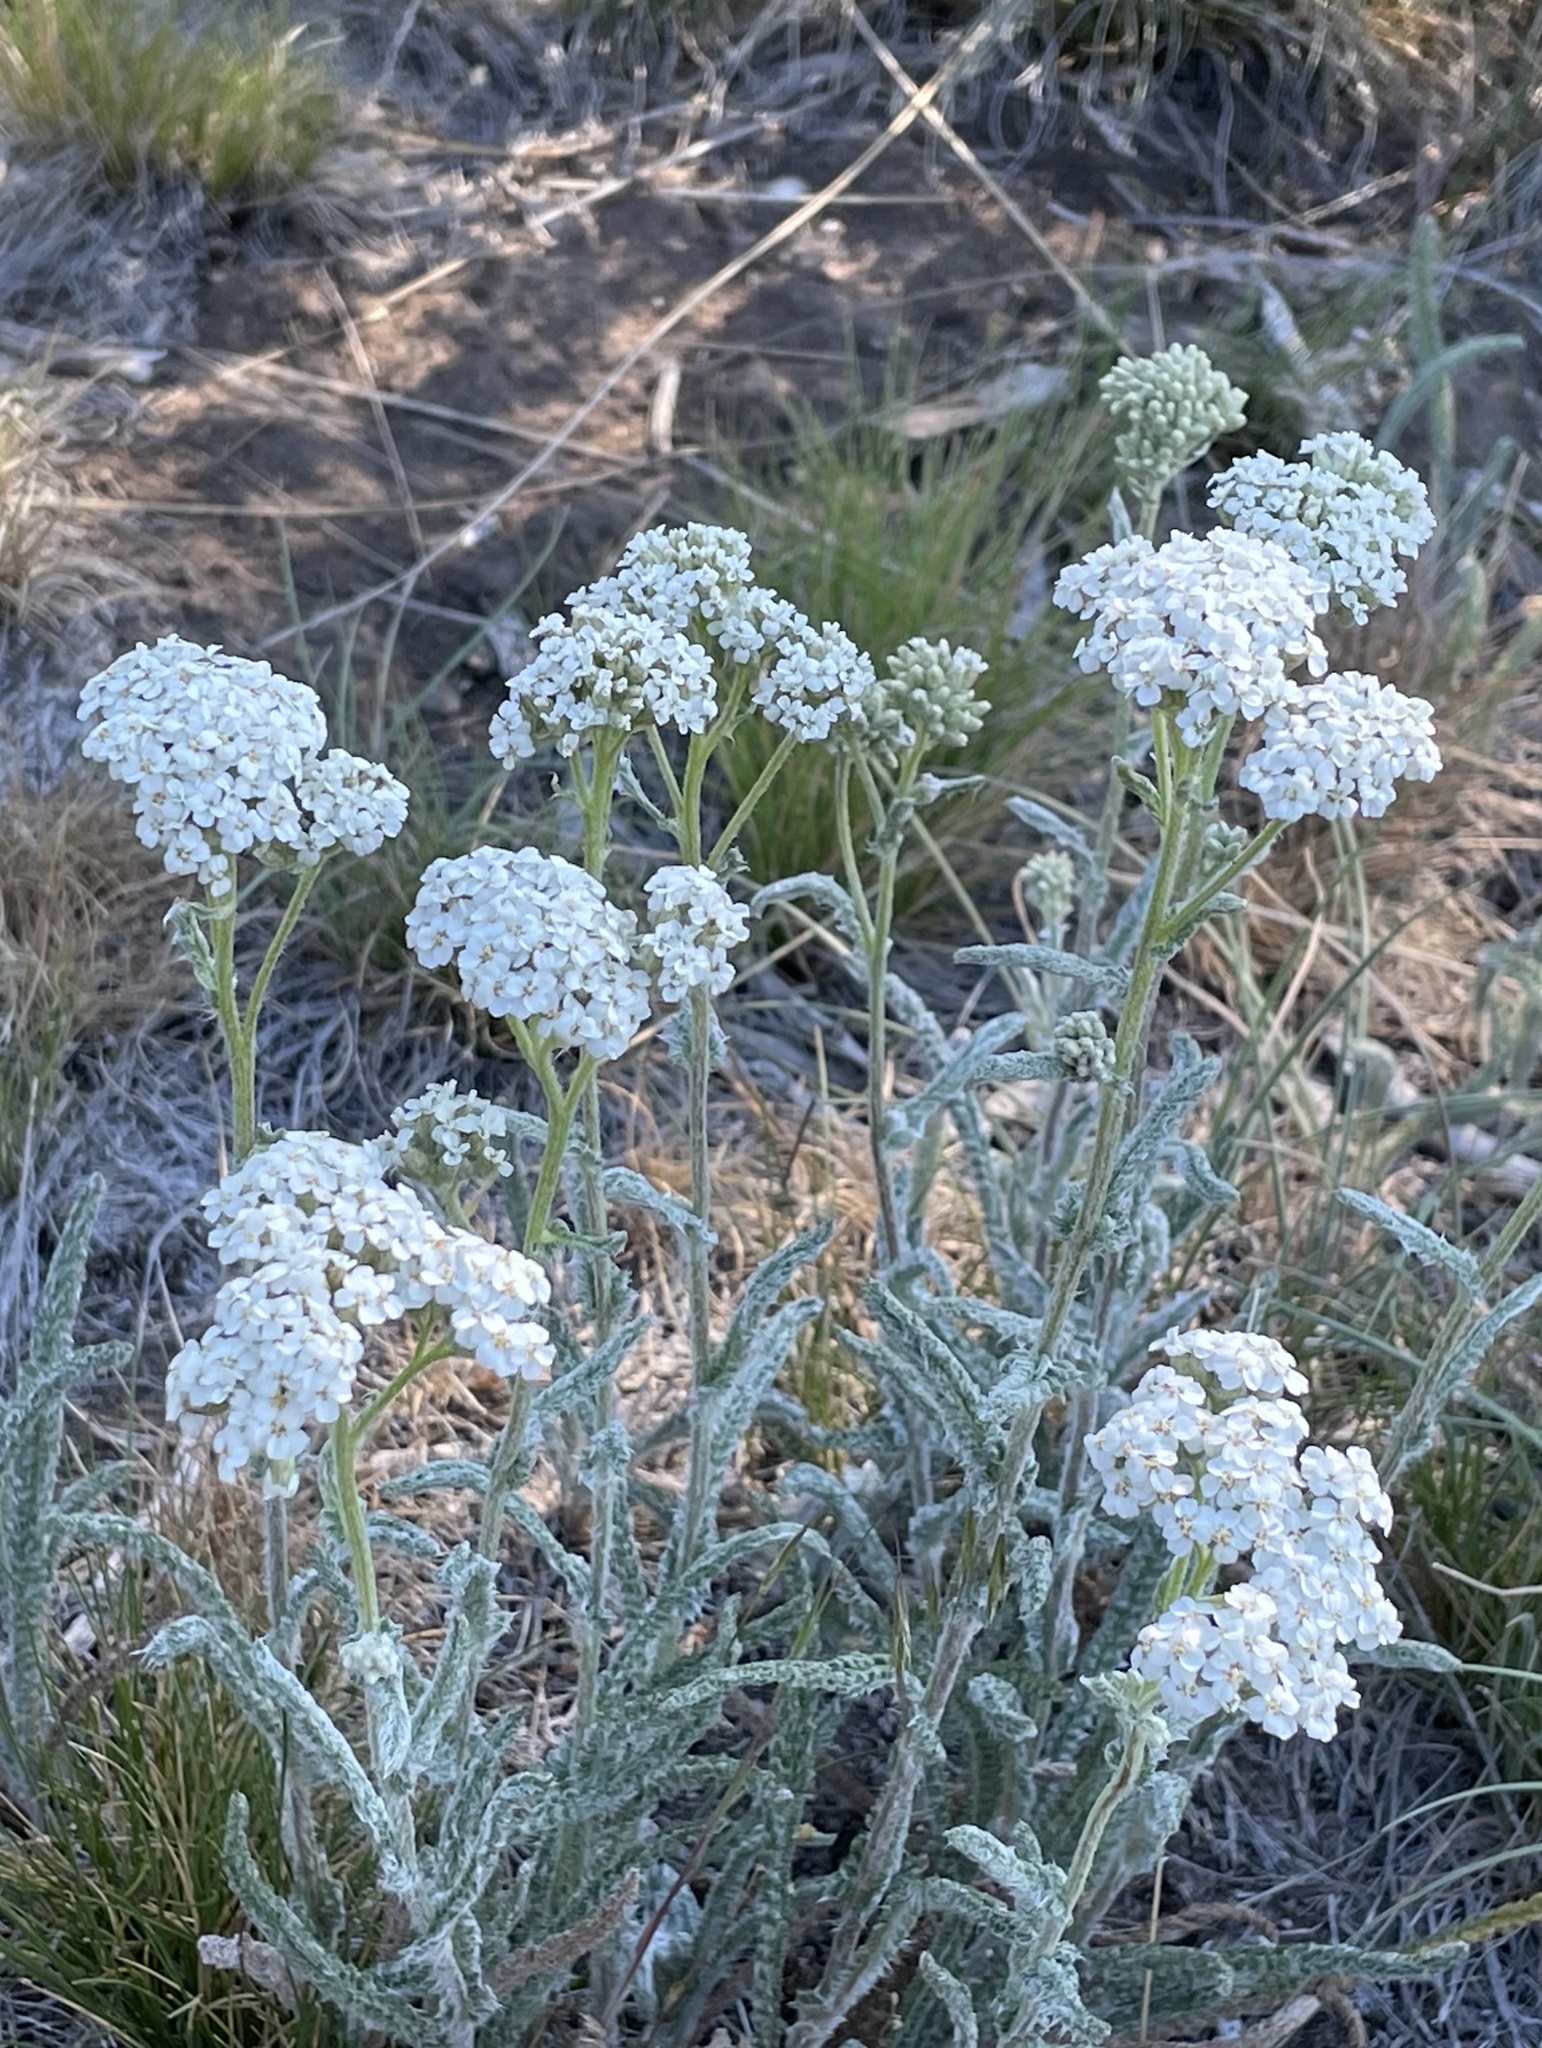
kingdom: Plantae
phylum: Tracheophyta
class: Magnoliopsida
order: Asterales
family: Asteraceae
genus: Achillea
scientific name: Achillea millefolium
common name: Yarrow
